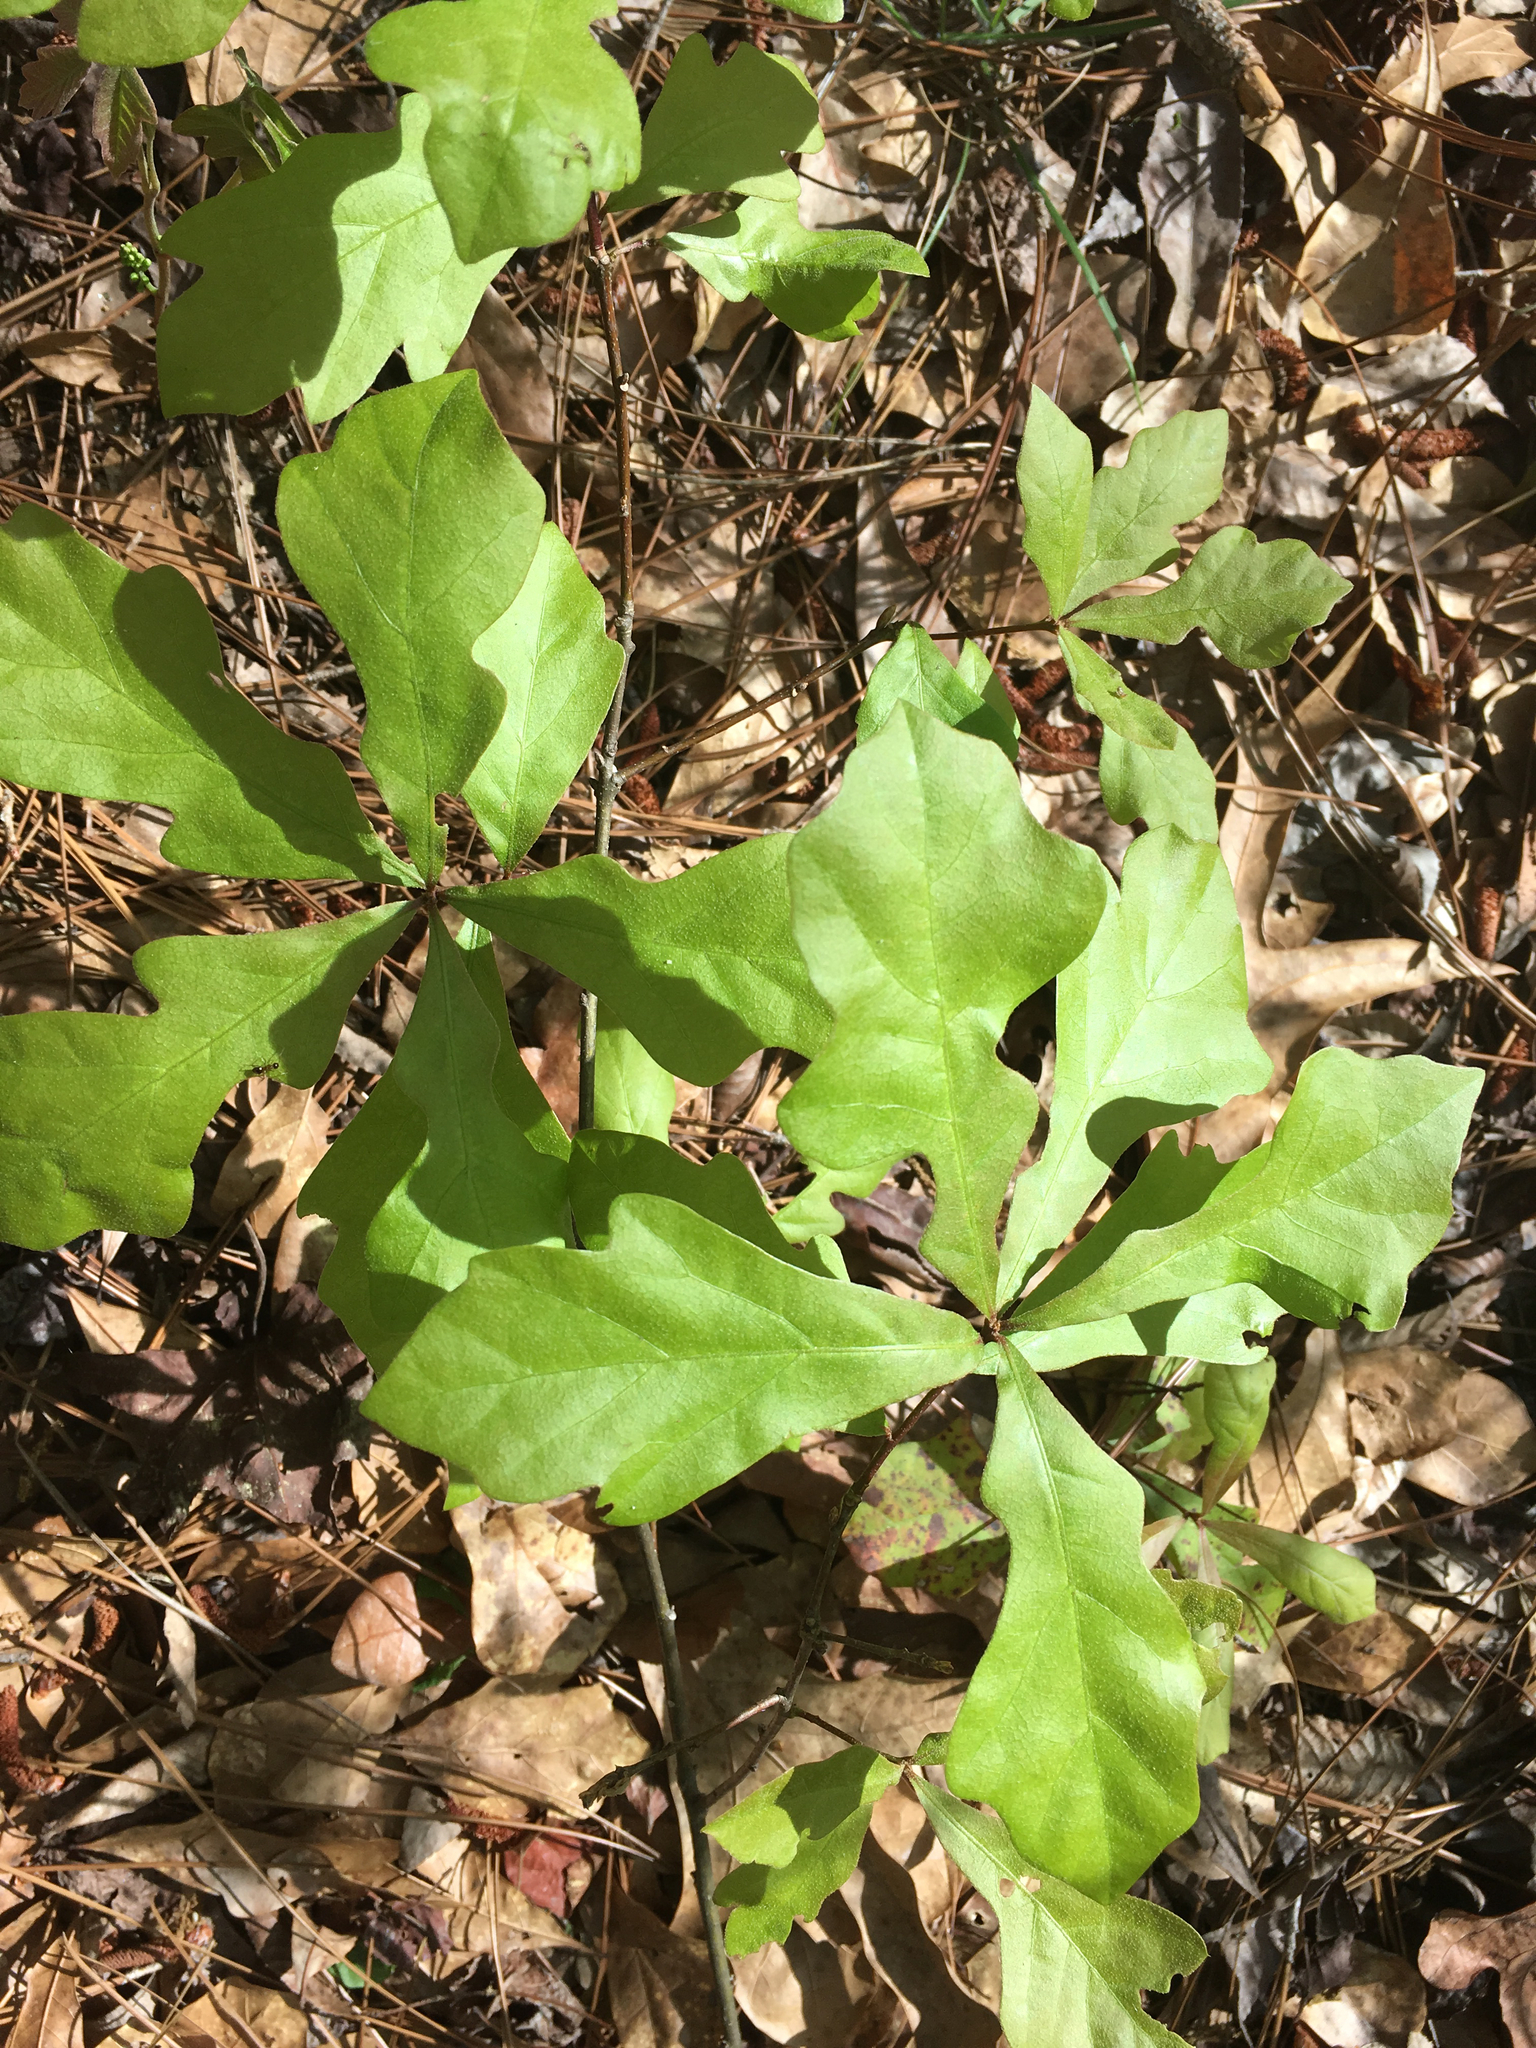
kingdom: Plantae
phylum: Tracheophyta
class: Magnoliopsida
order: Fagales
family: Fagaceae
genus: Quercus
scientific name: Quercus nigra
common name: Water oak
